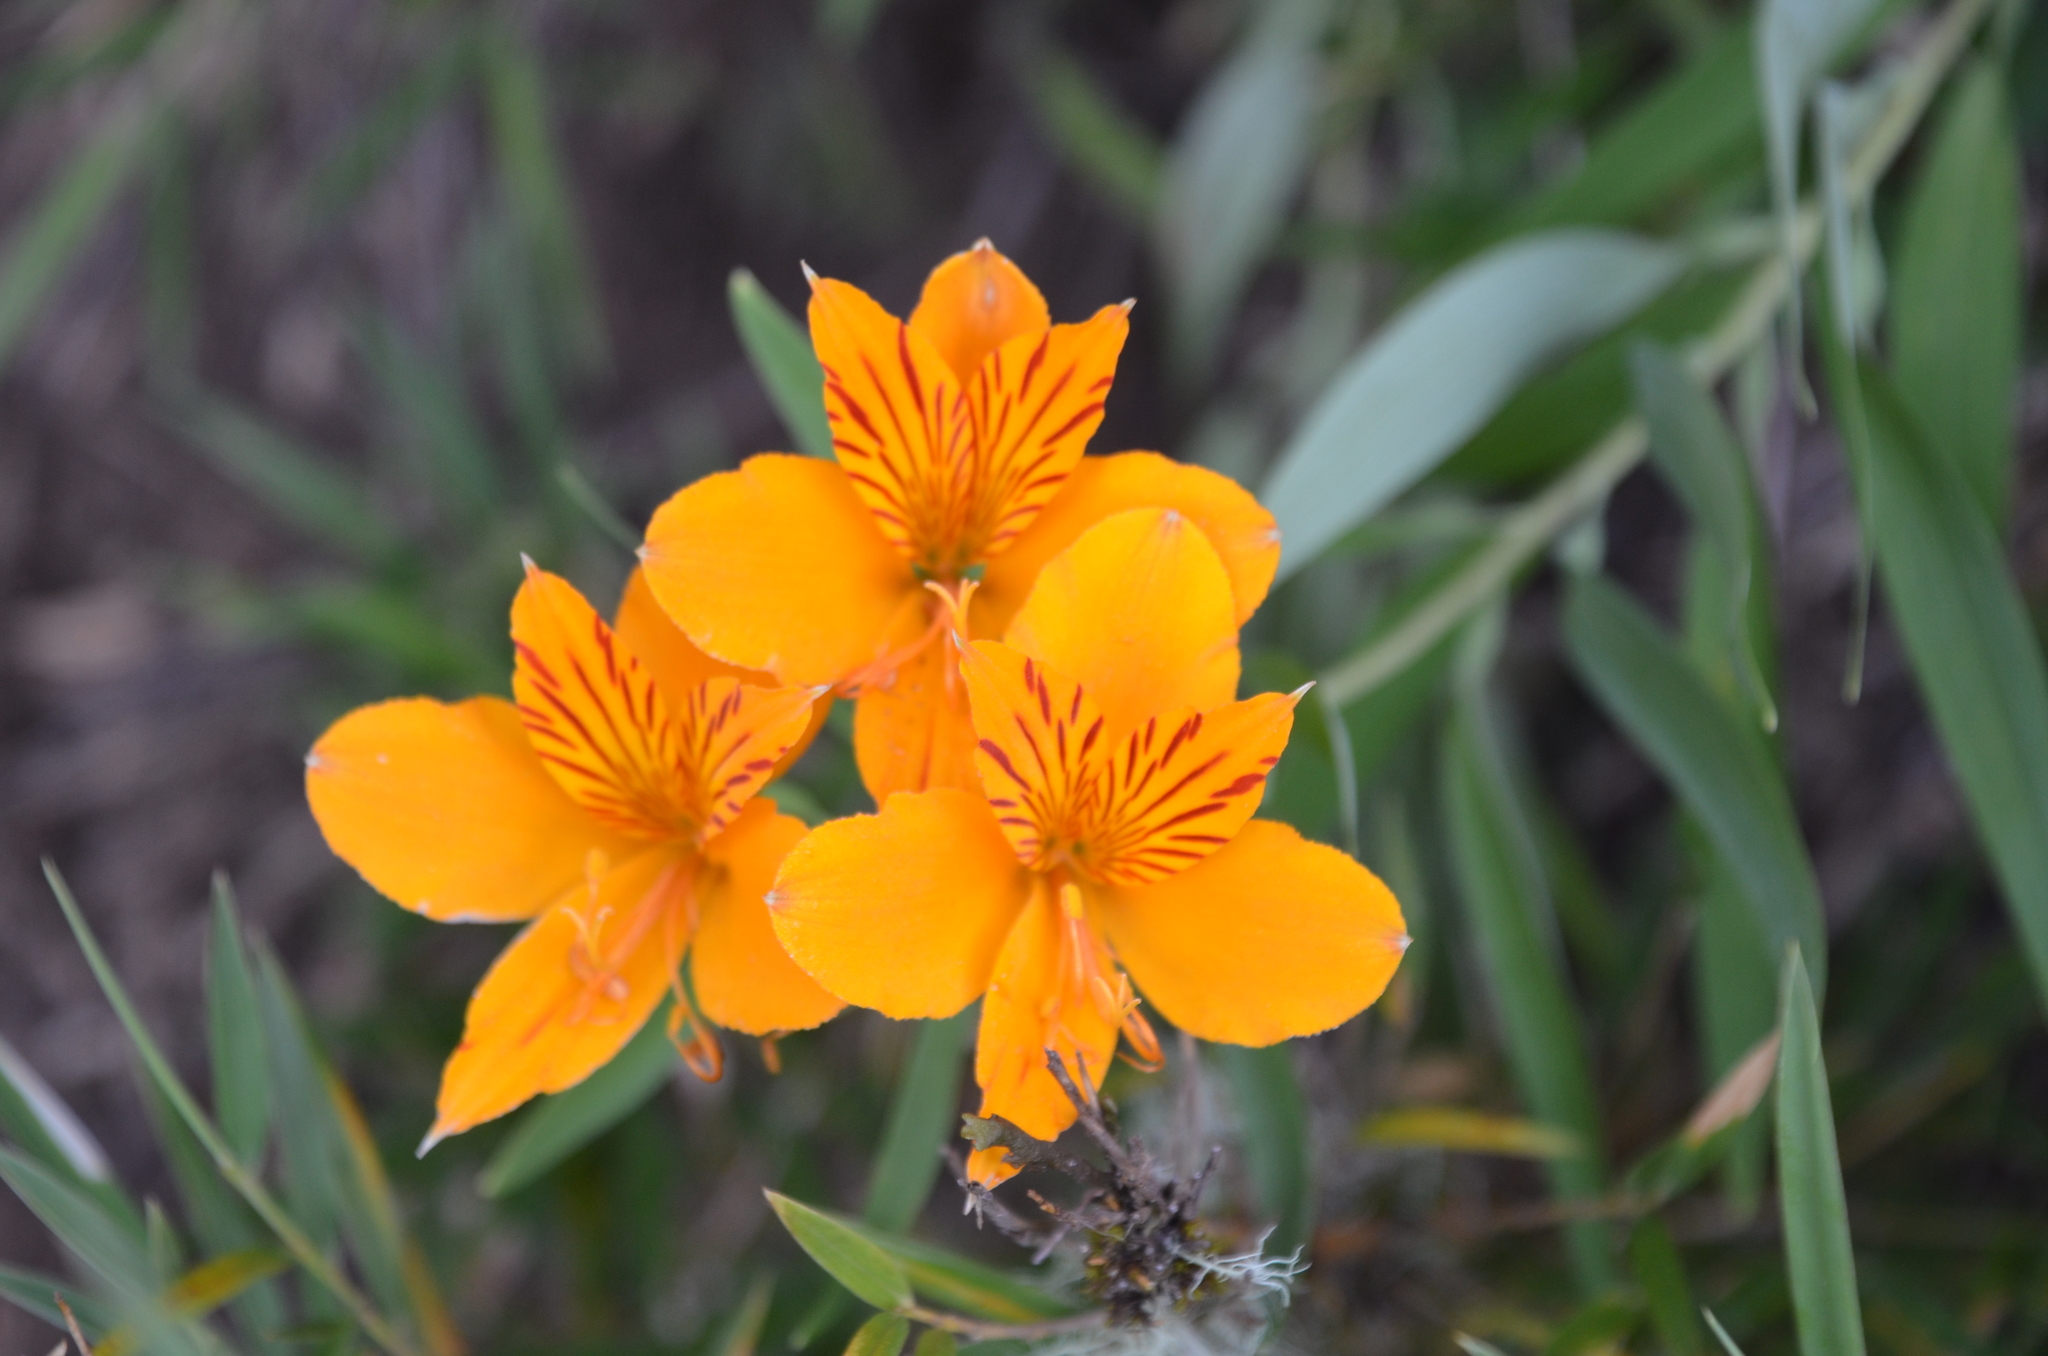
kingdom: Plantae
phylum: Tracheophyta
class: Liliopsida
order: Liliales
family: Alstroemeriaceae
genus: Alstroemeria
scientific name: Alstroemeria aurea
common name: Peruvian lily
